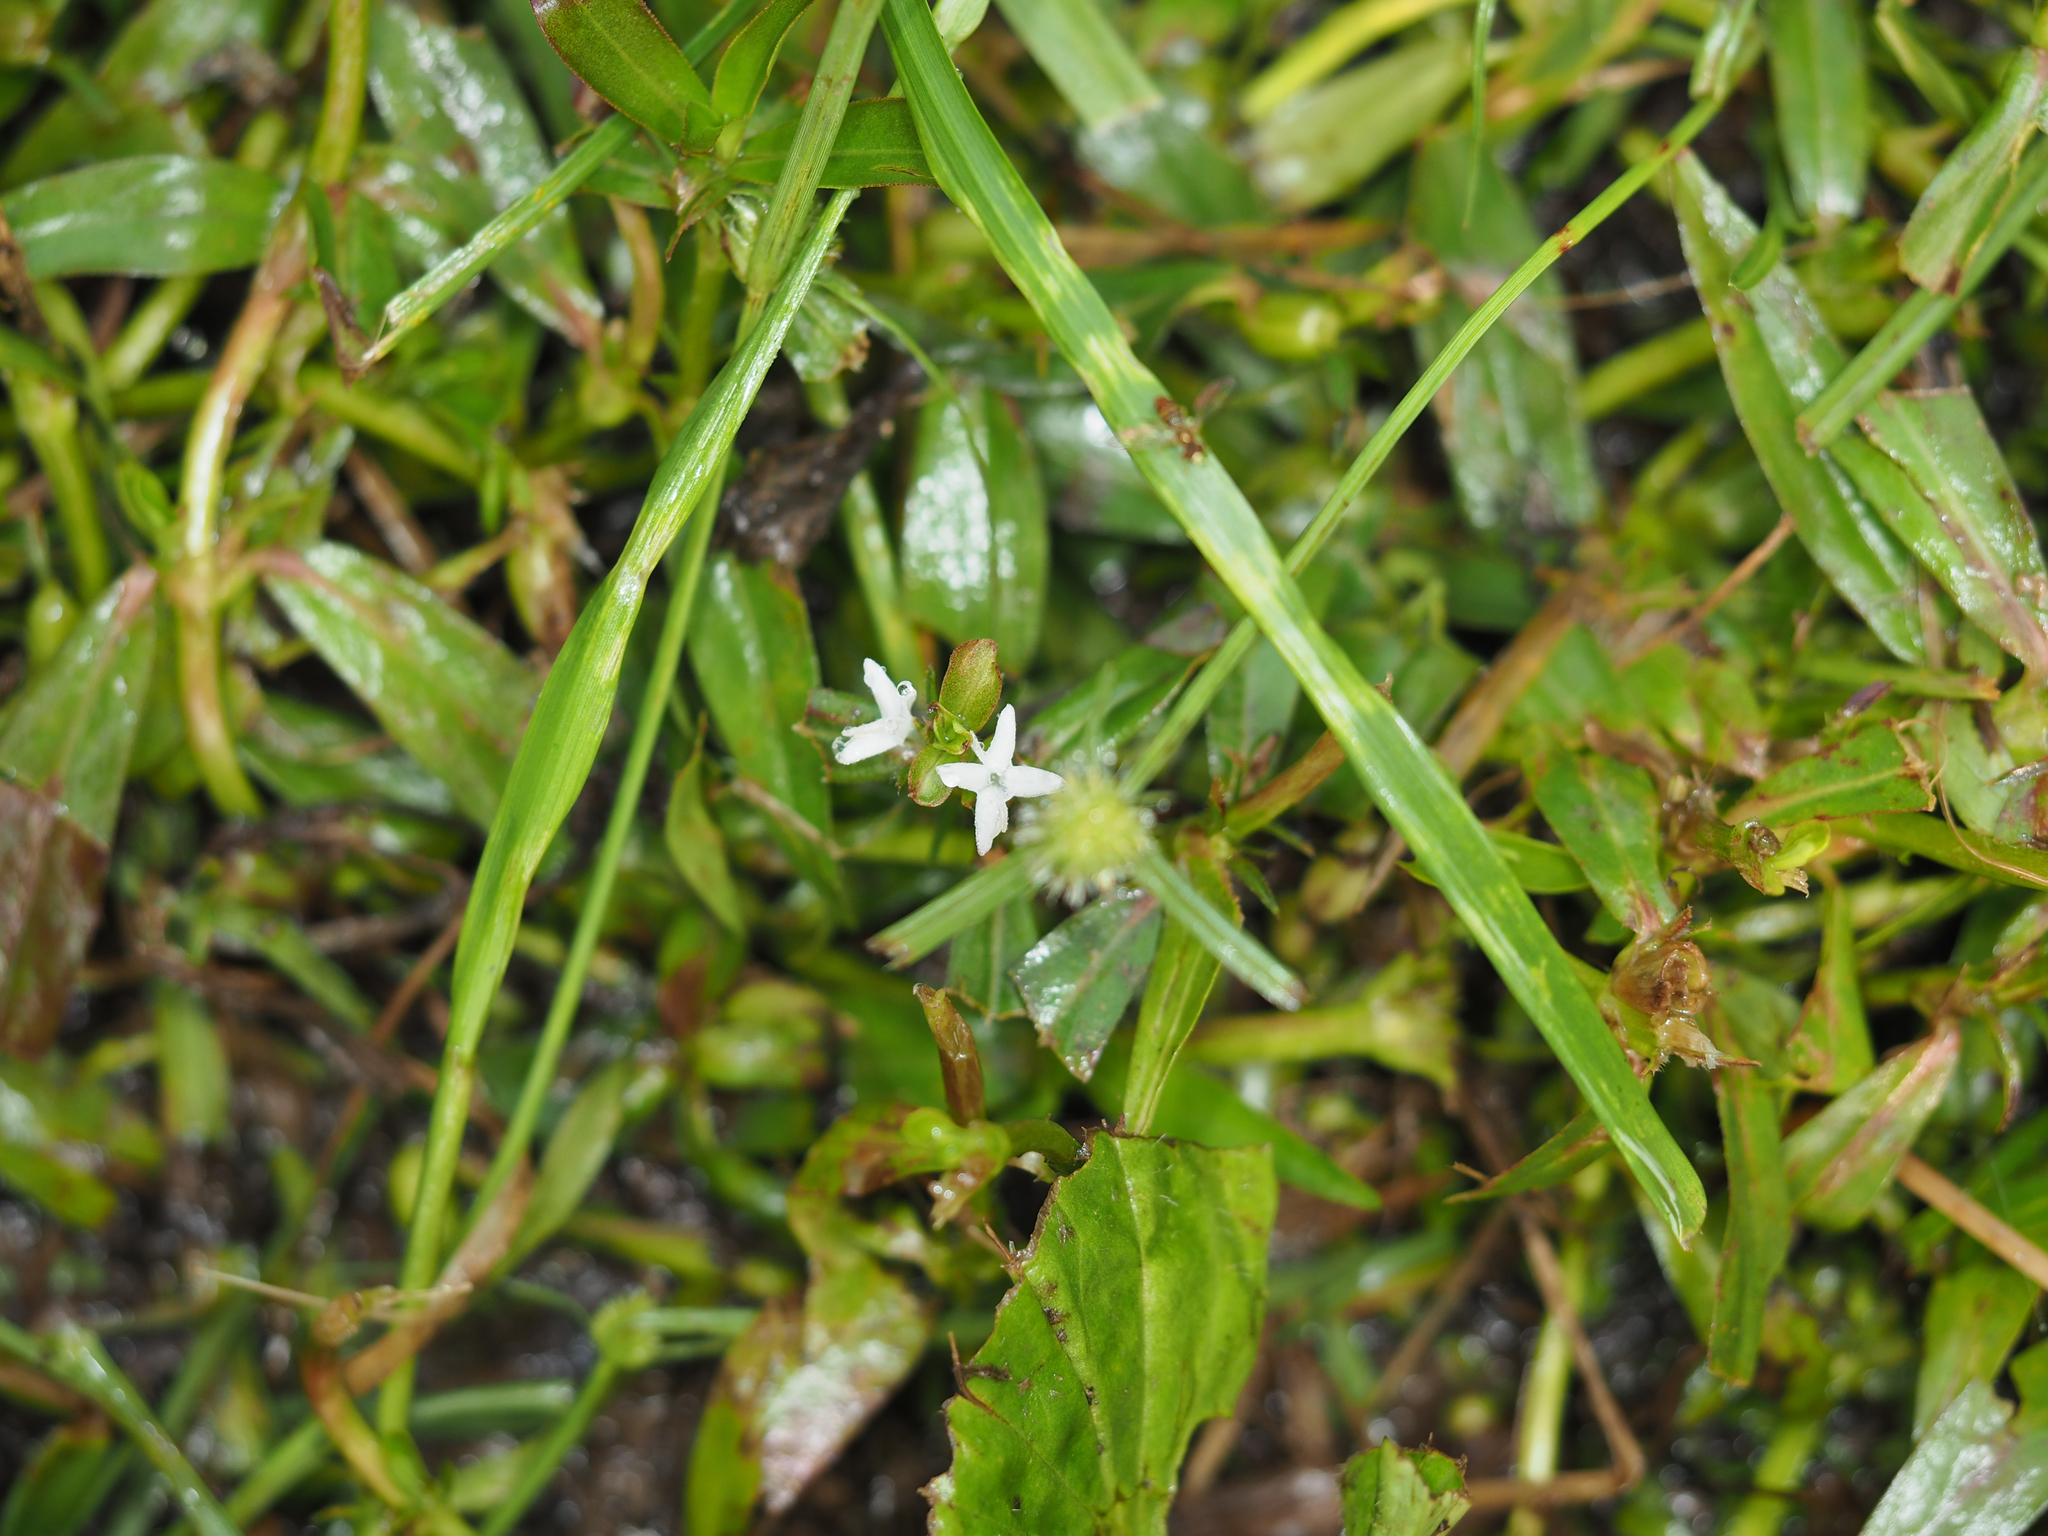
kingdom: Plantae
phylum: Tracheophyta
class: Magnoliopsida
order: Gentianales
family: Rubiaceae
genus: Diodia
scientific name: Diodia virginiana
